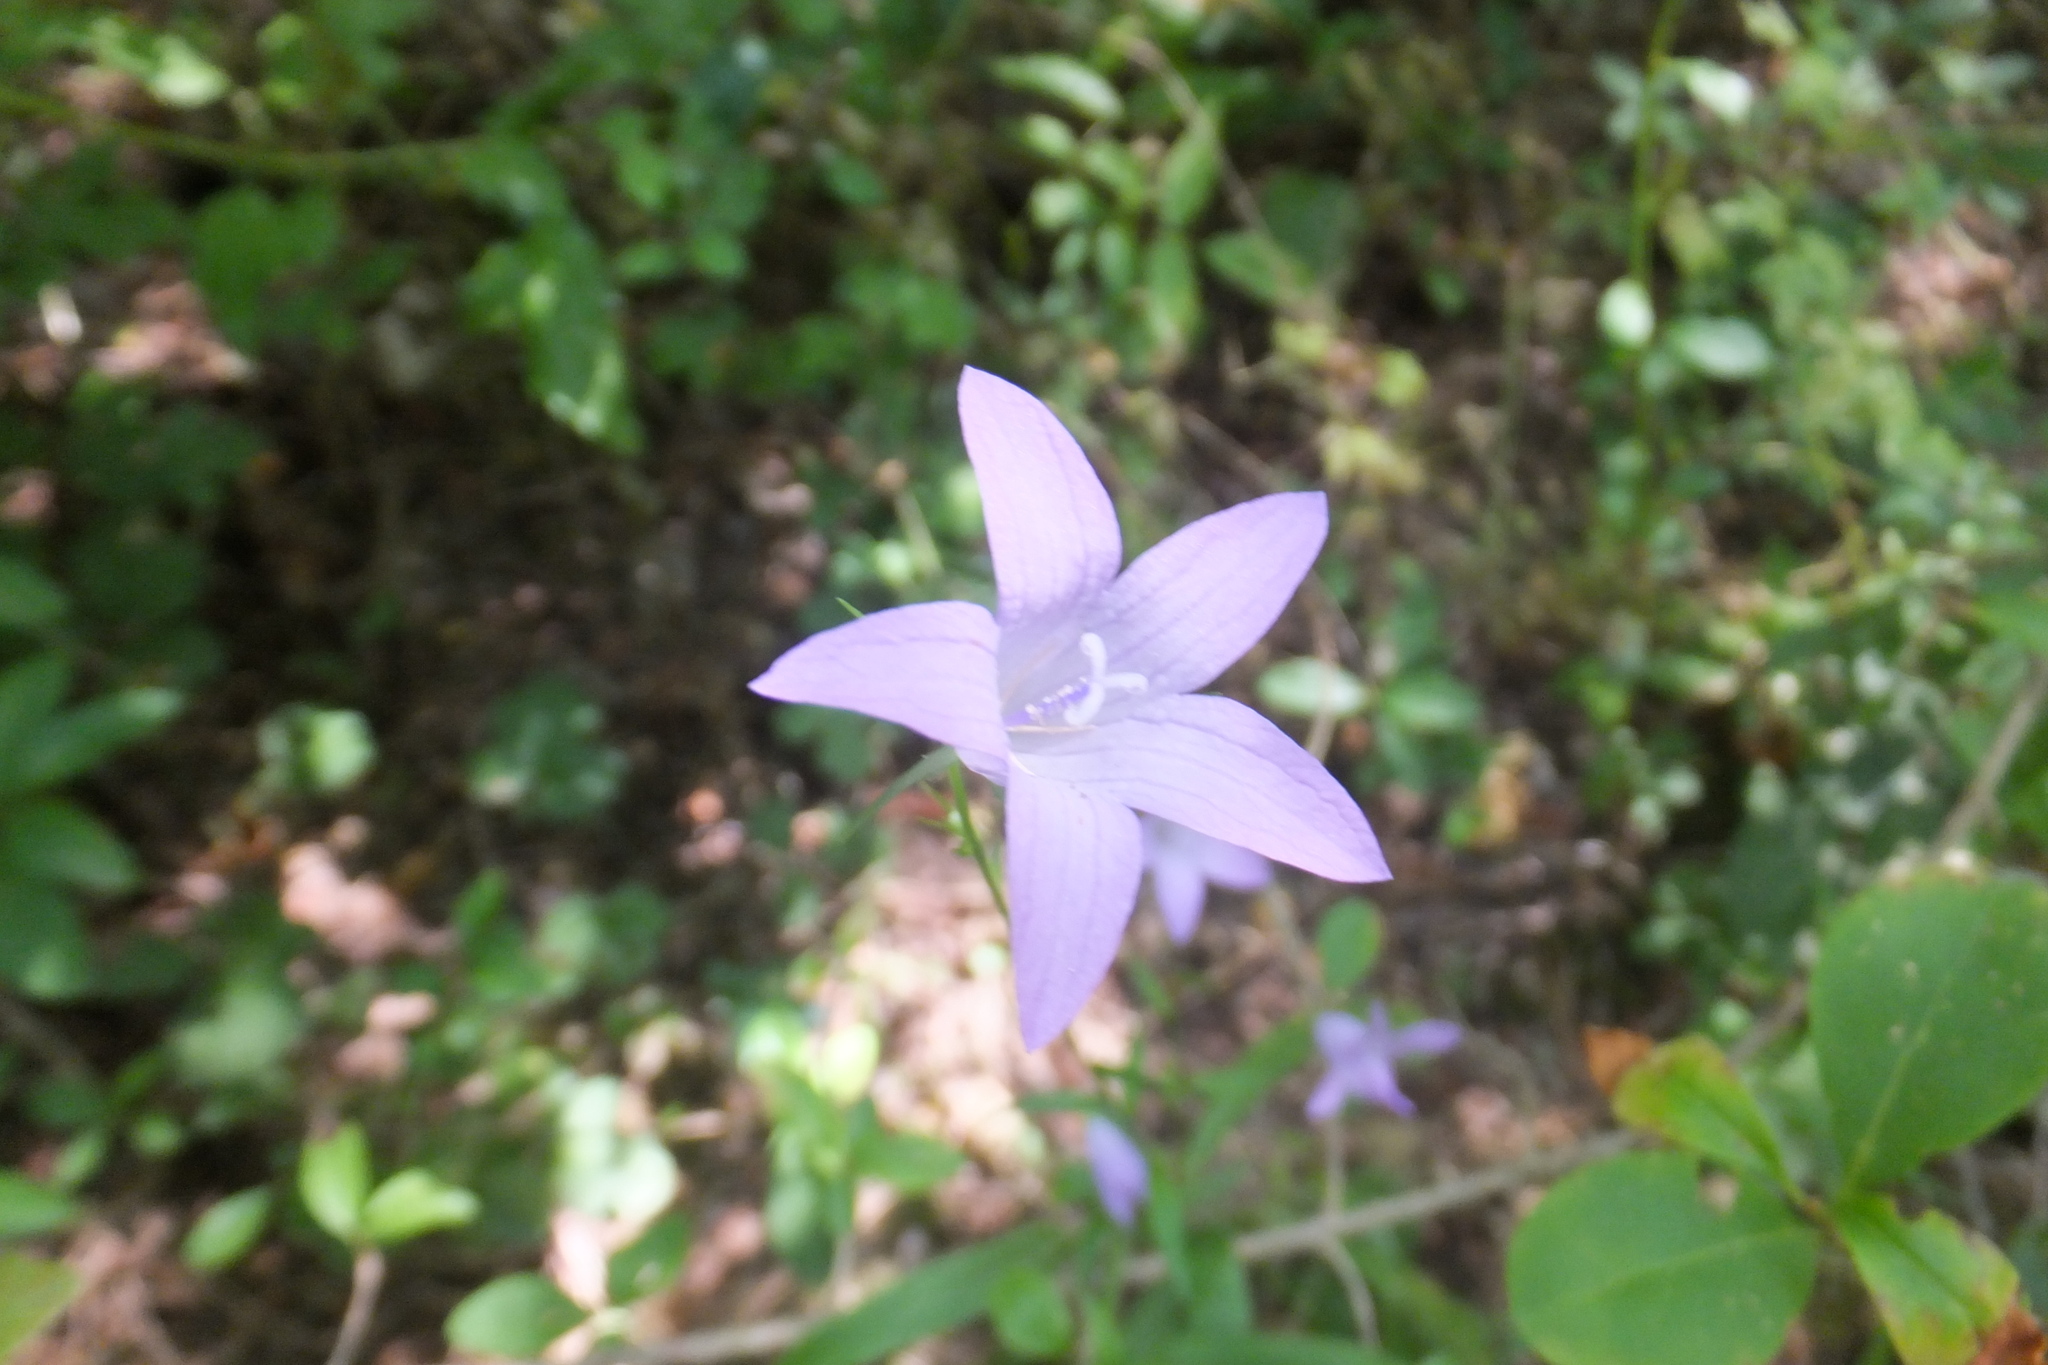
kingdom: Plantae
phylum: Tracheophyta
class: Magnoliopsida
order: Asterales
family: Campanulaceae
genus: Campanula
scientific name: Campanula rapunculus
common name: Rampion bellflower
